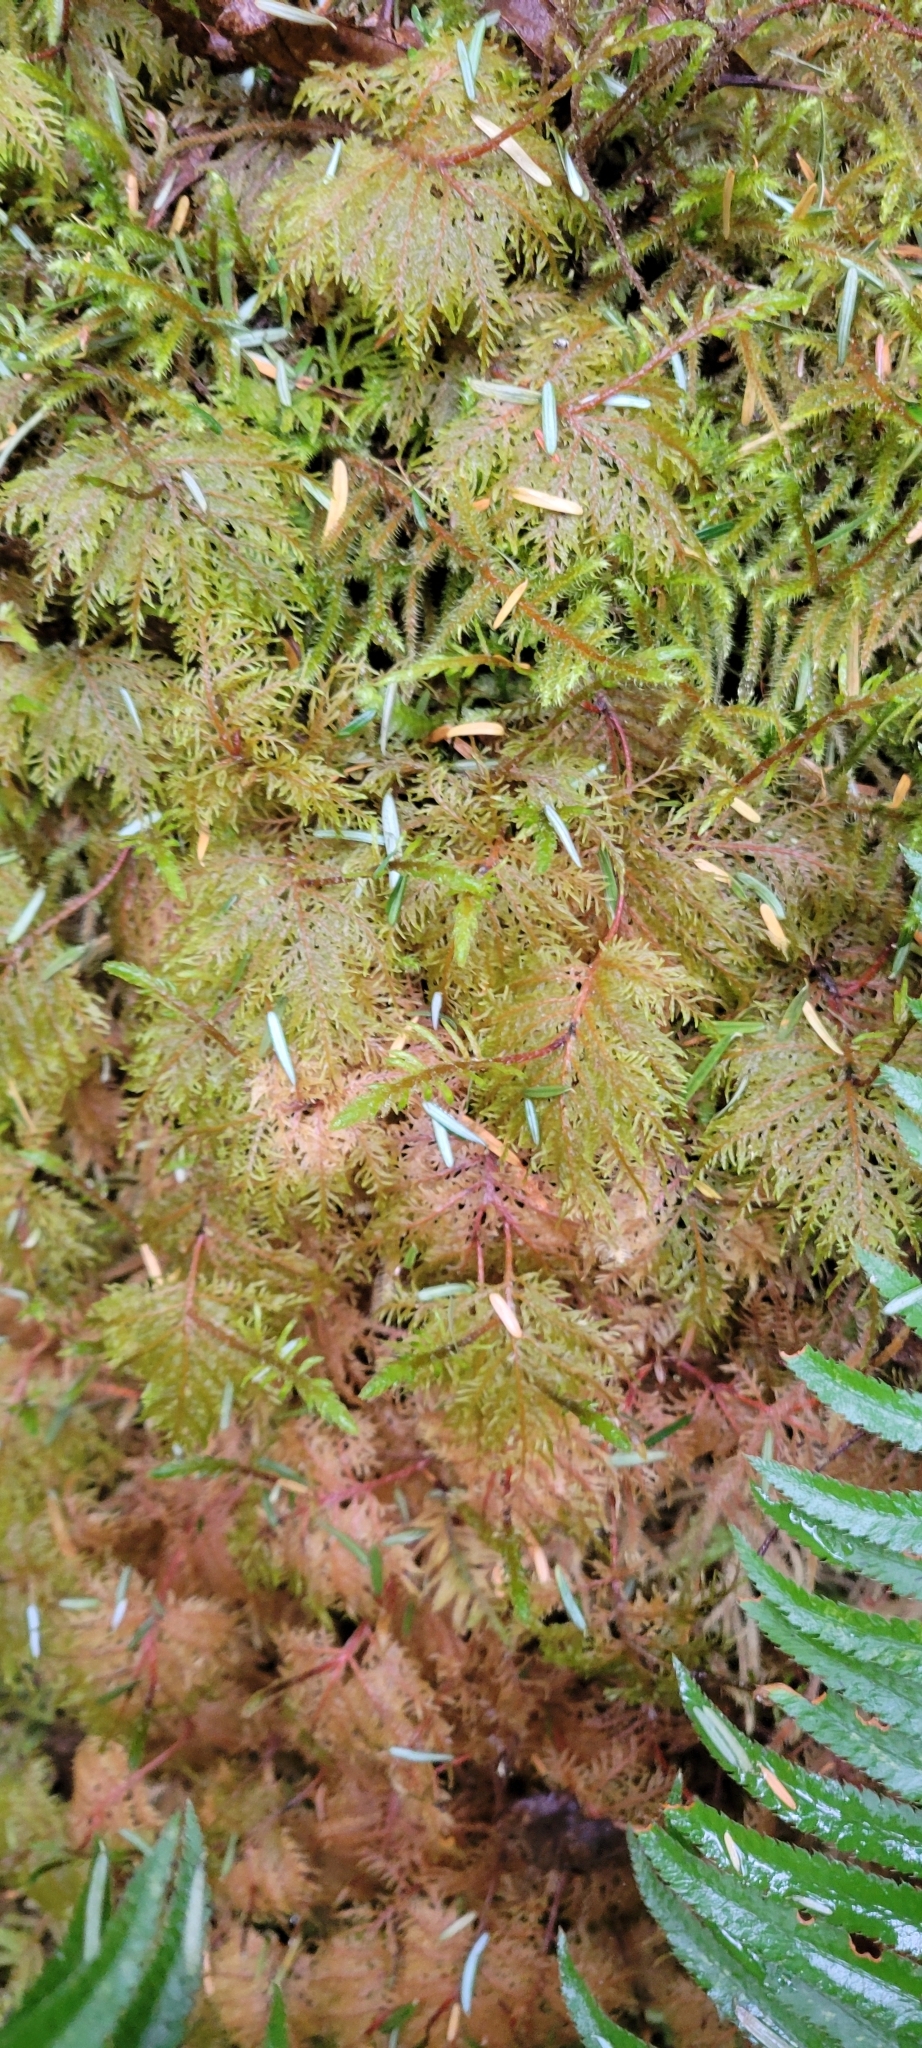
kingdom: Plantae
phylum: Bryophyta
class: Bryopsida
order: Hypnales
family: Hylocomiaceae
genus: Hylocomium
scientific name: Hylocomium splendens
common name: Stairstep moss
